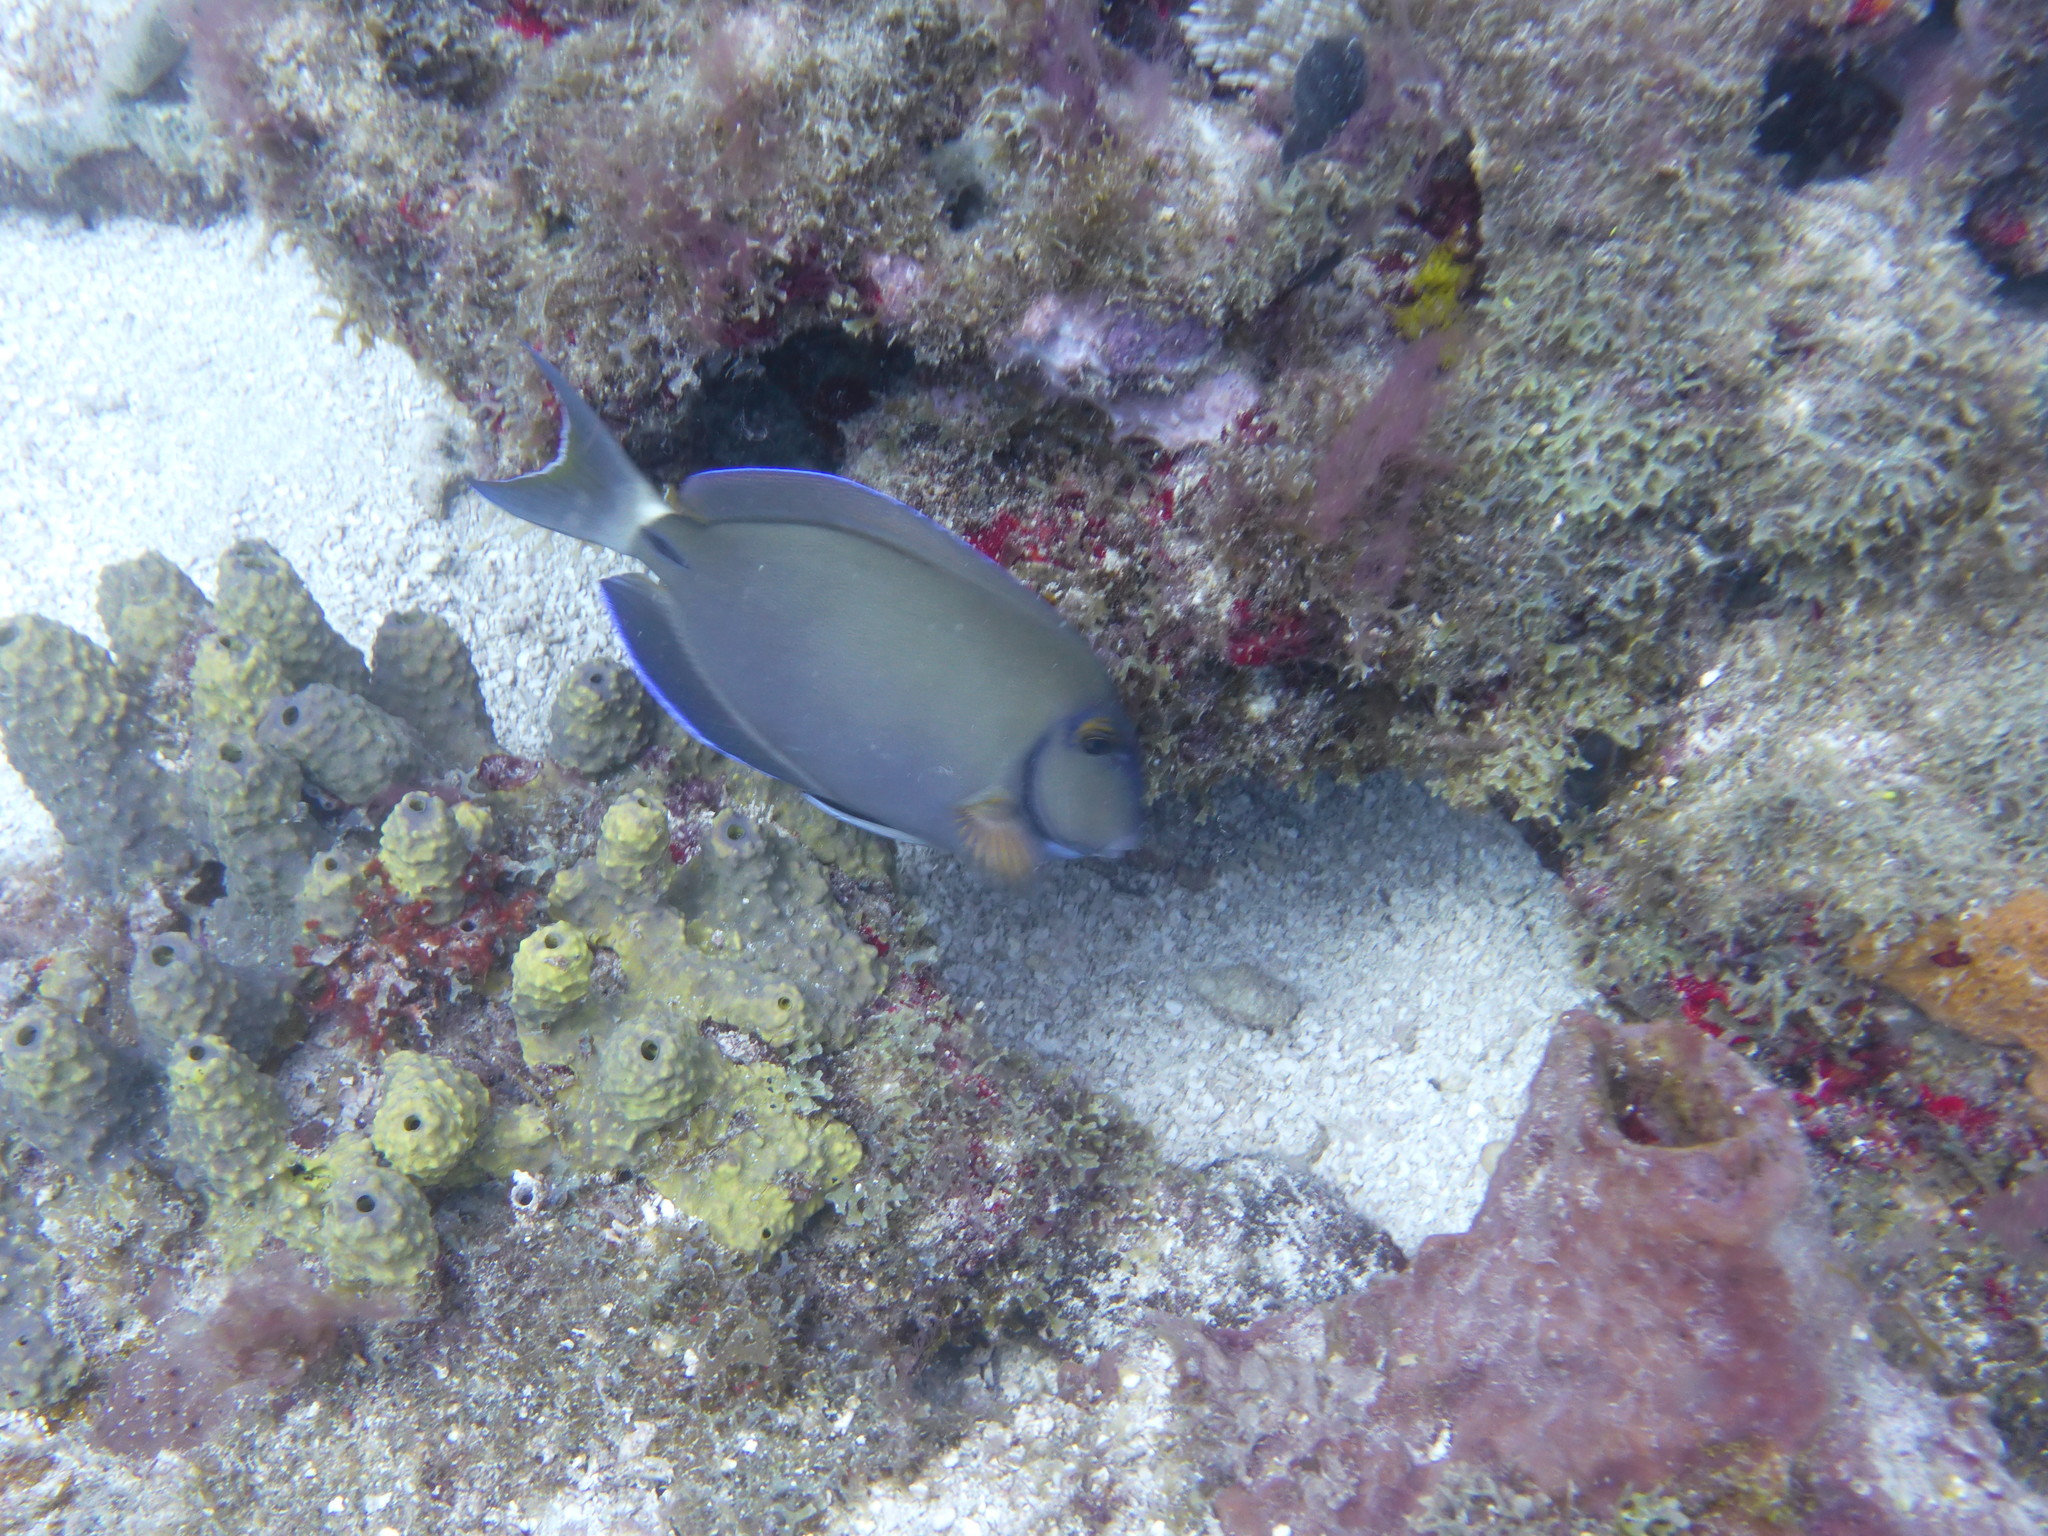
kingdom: Animalia
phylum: Chordata
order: Perciformes
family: Acanthuridae
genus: Acanthurus
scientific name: Acanthurus bahianus
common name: Ocean surgeon
